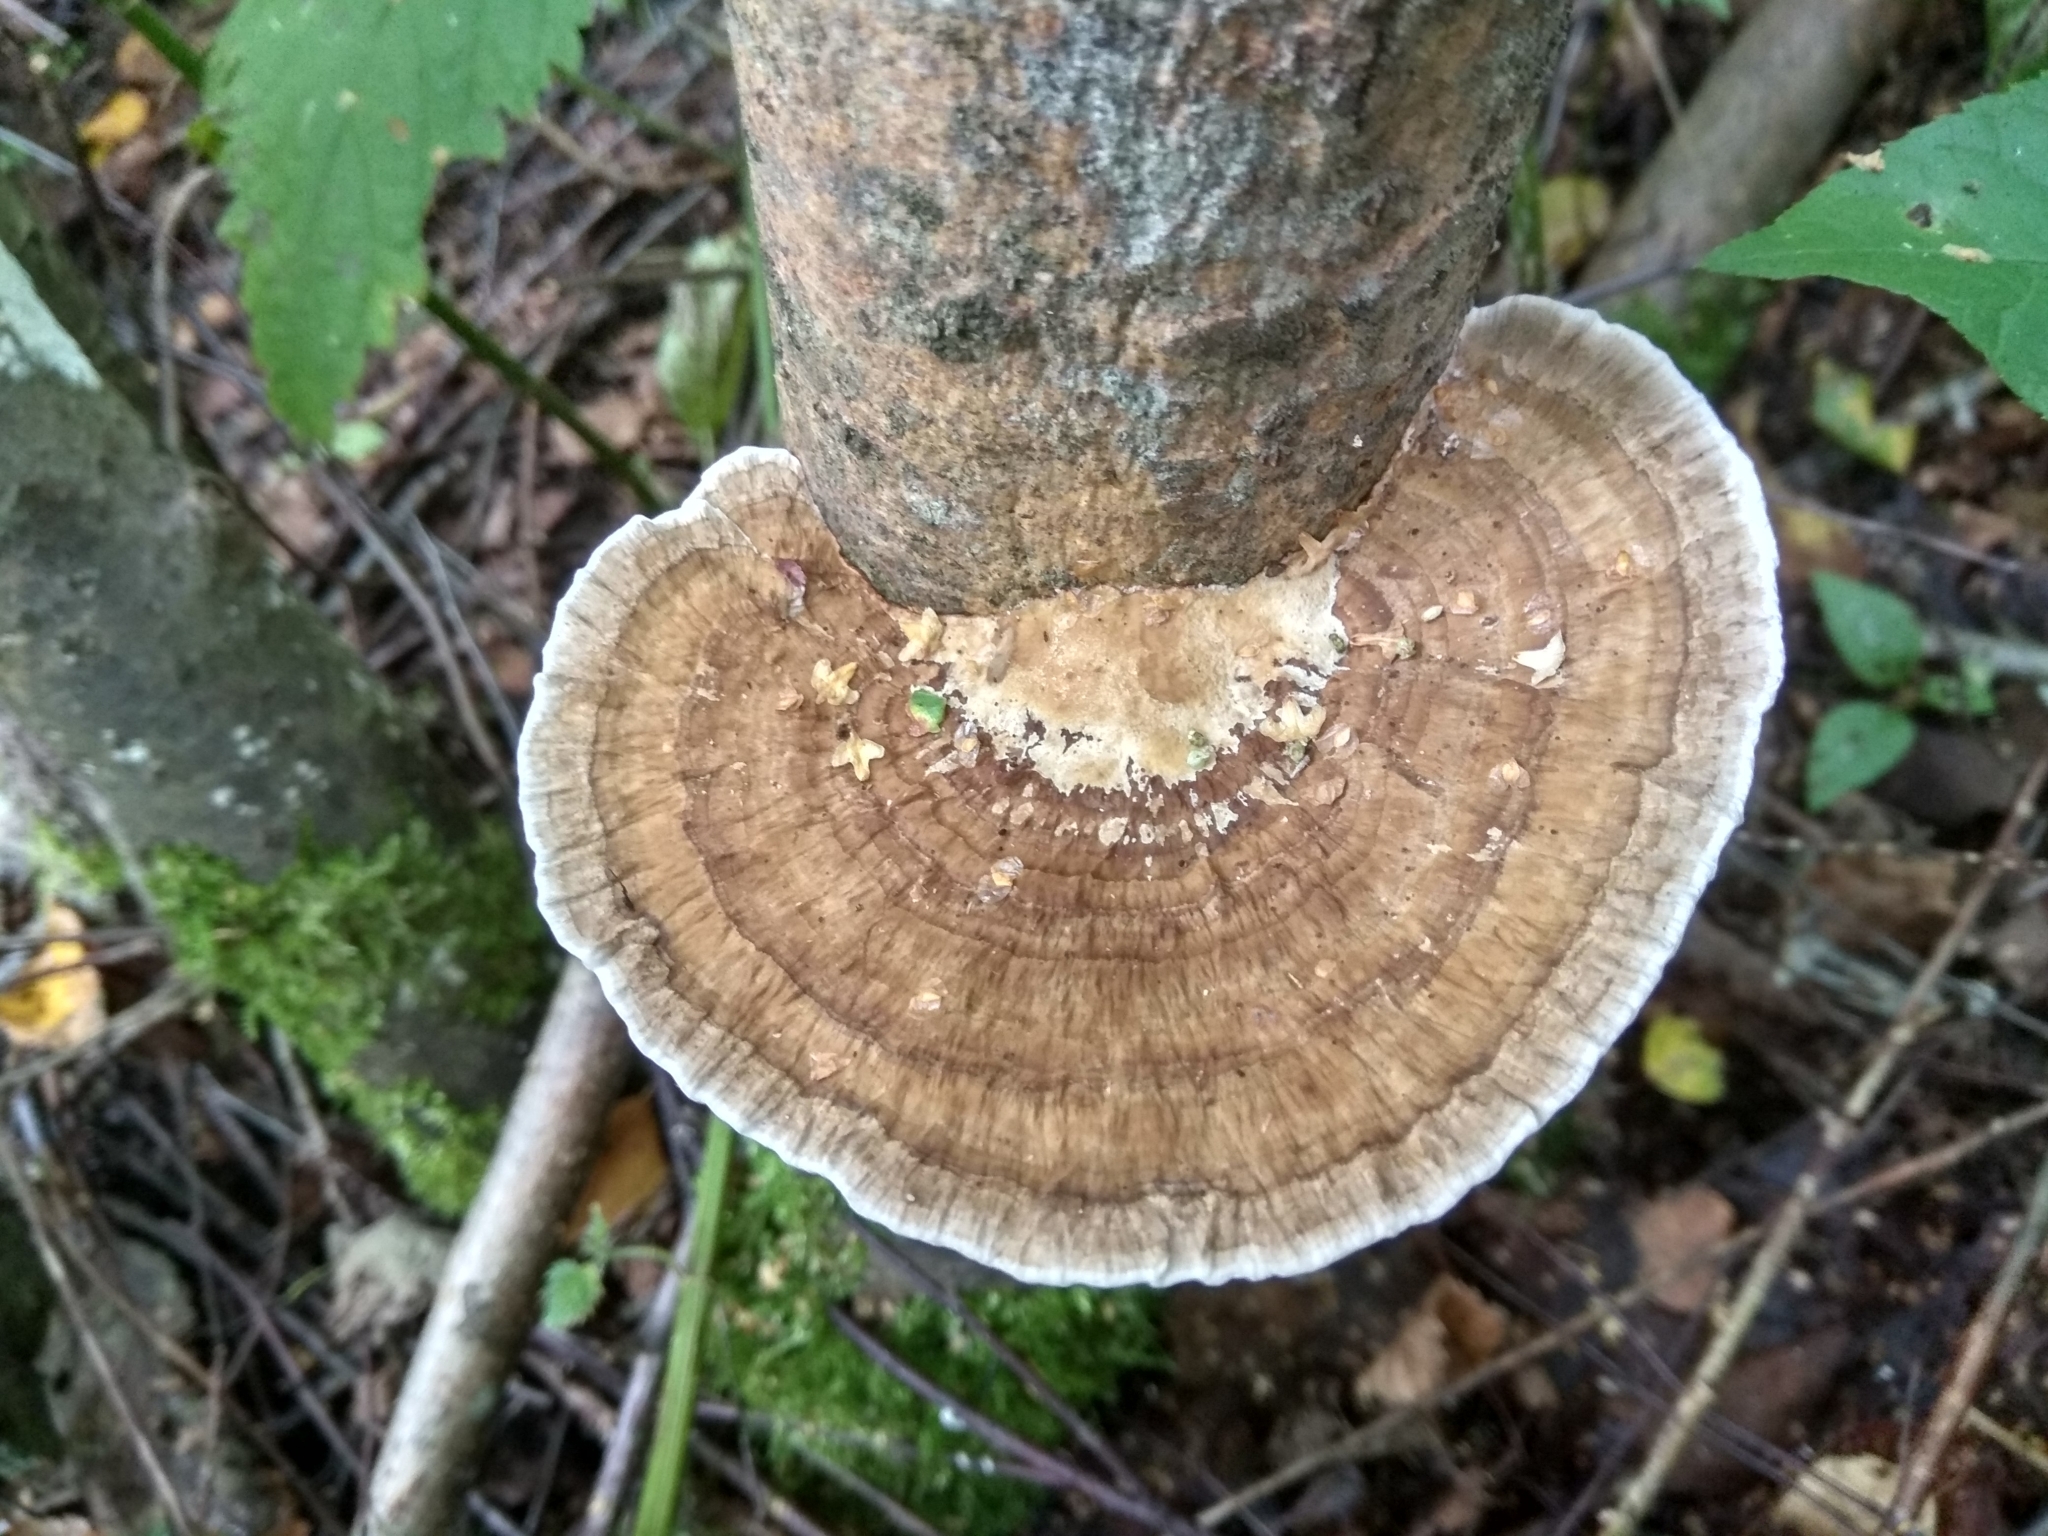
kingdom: Fungi
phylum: Basidiomycota
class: Agaricomycetes
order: Polyporales
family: Polyporaceae
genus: Daedaleopsis
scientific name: Daedaleopsis confragosa
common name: Blushing bracket
